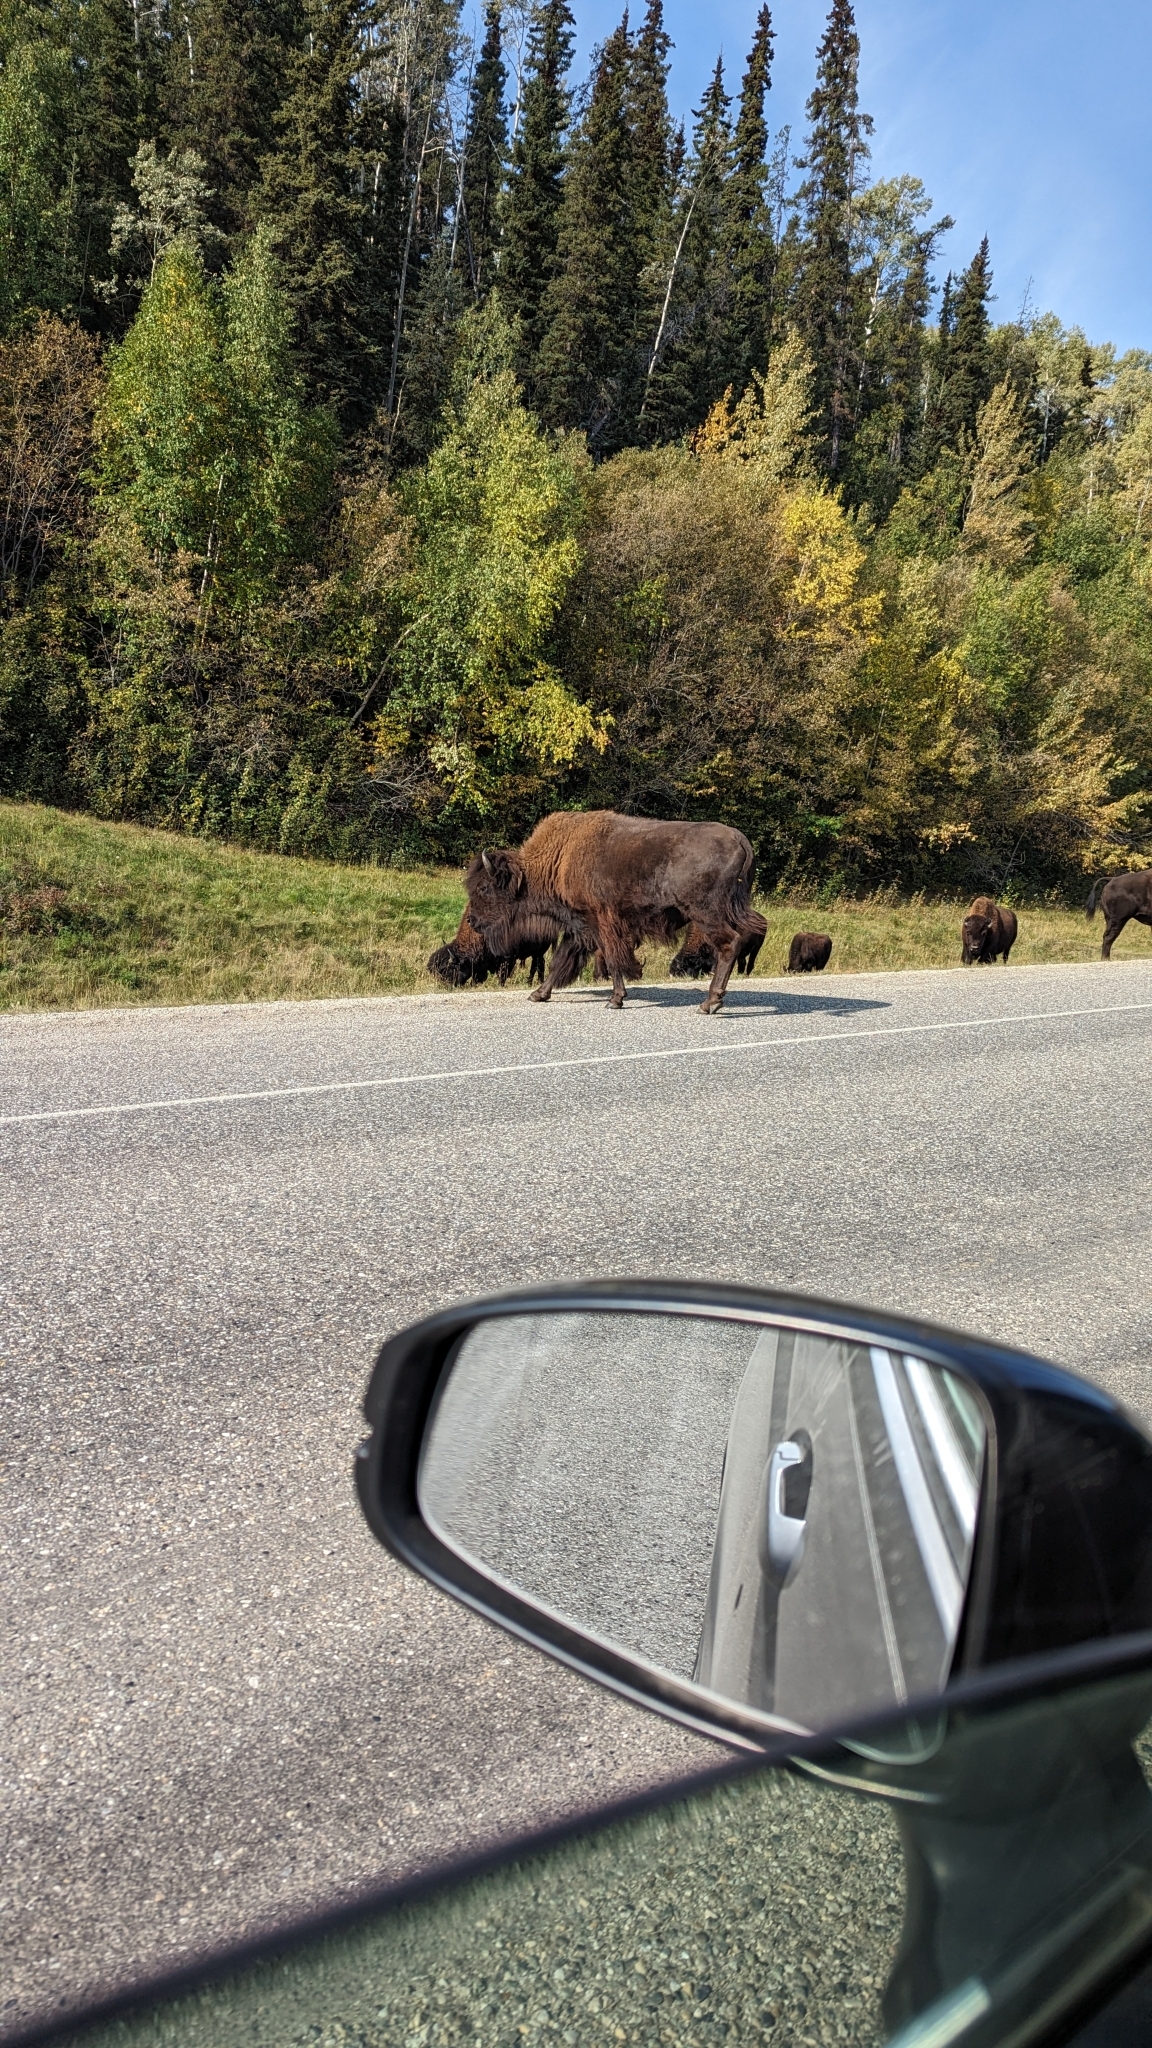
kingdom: Animalia
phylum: Chordata
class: Mammalia
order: Artiodactyla
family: Bovidae
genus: Bison
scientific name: Bison bison
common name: American bison
